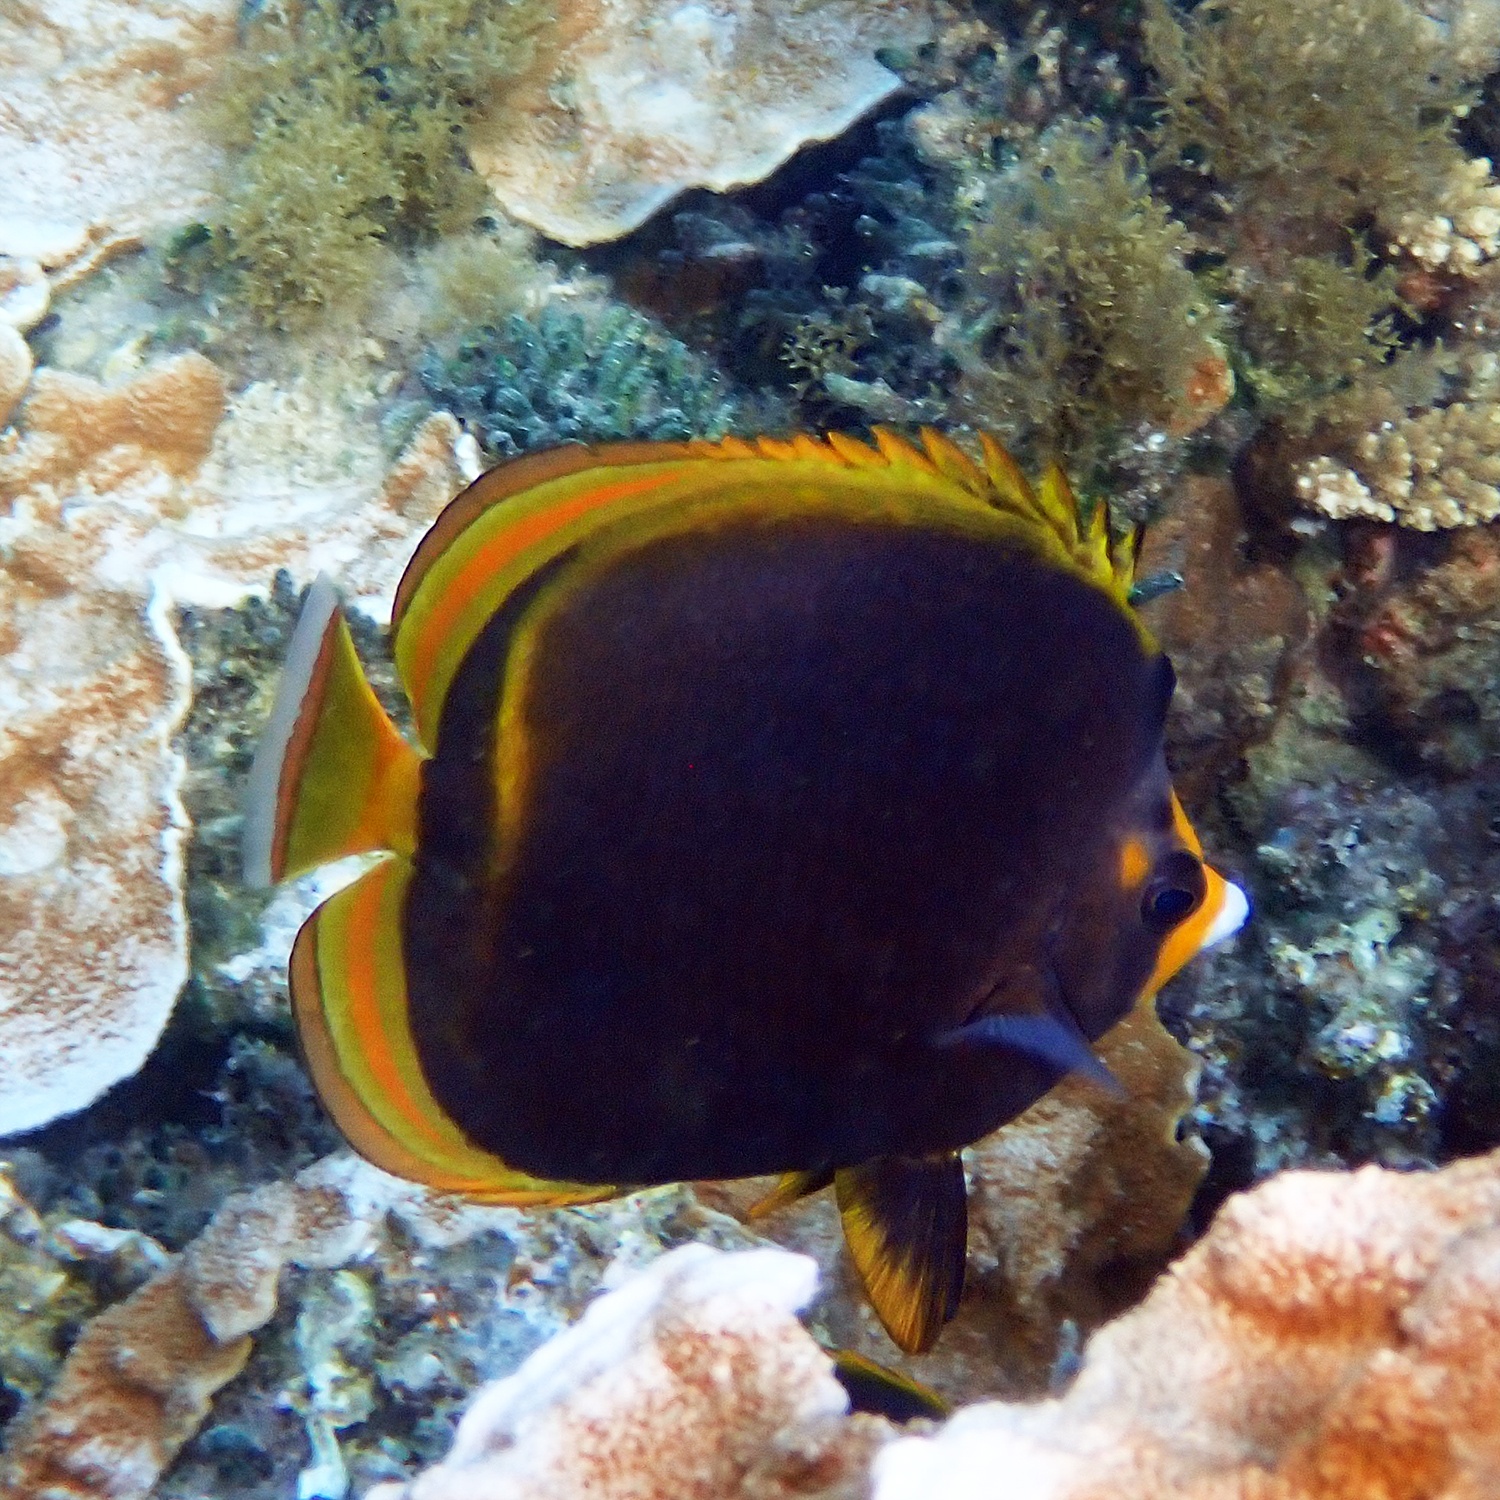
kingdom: Animalia
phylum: Chordata
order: Perciformes
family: Chaetodontidae
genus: Chaetodon
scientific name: Chaetodon flavirostris
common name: Black butterflyfish
